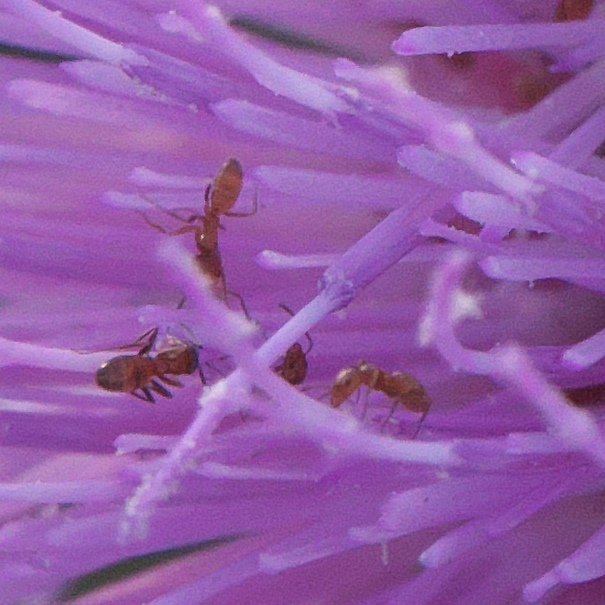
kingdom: Animalia
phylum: Arthropoda
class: Insecta
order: Hymenoptera
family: Formicidae
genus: Forelius
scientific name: Forelius
